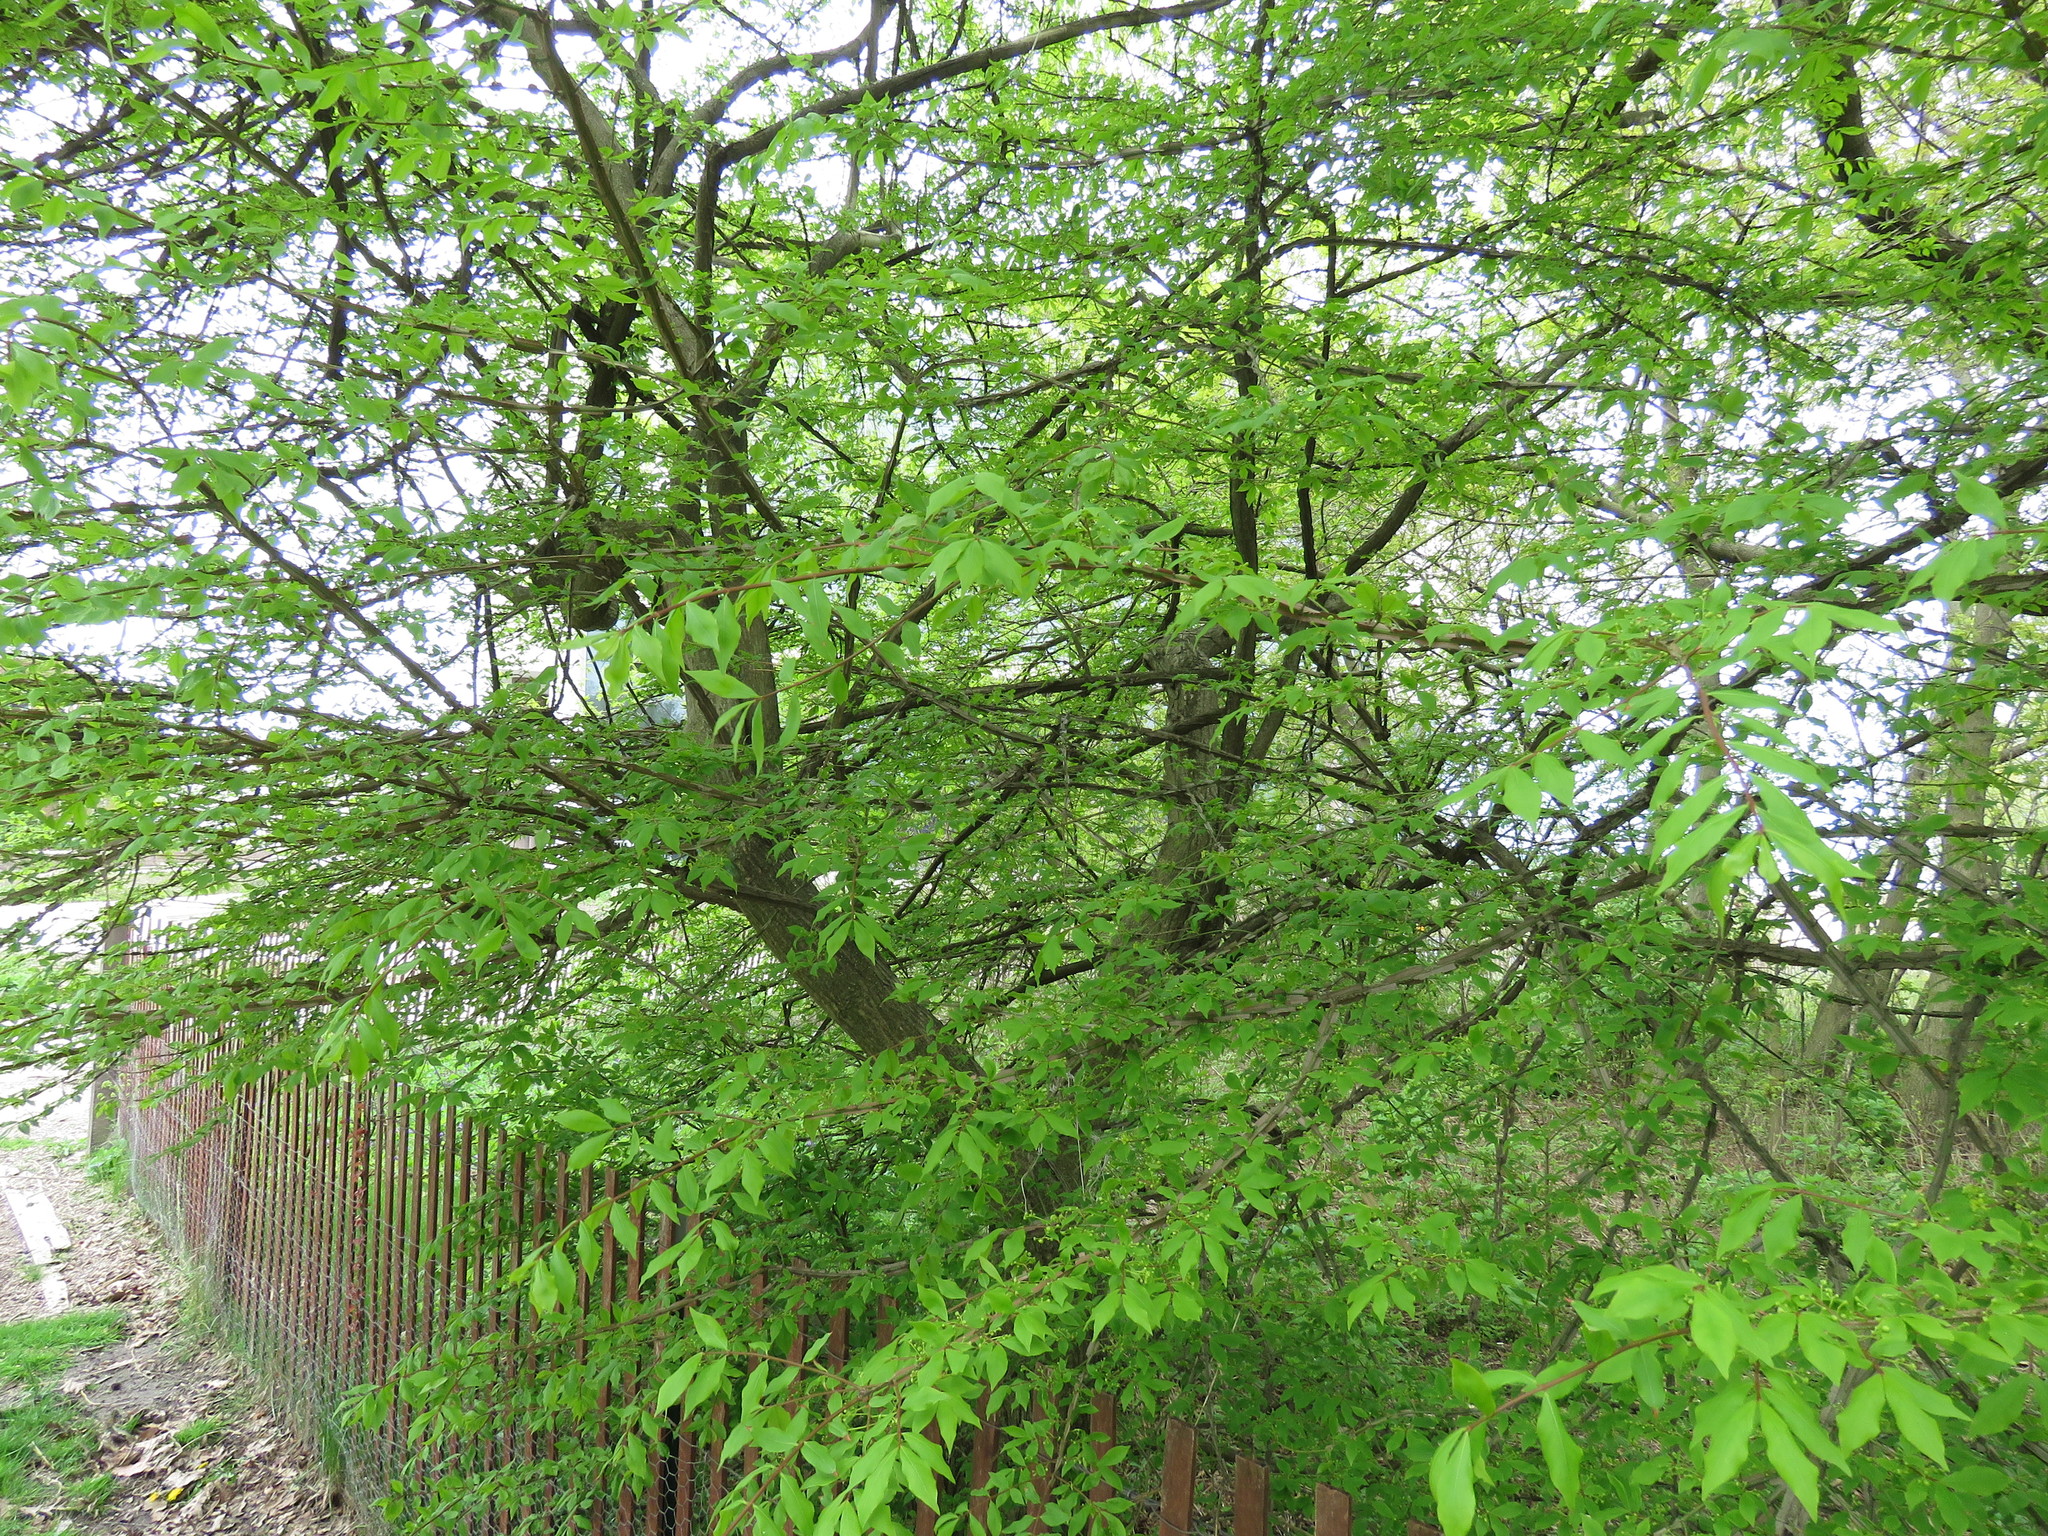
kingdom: Plantae
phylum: Tracheophyta
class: Magnoliopsida
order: Celastrales
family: Celastraceae
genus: Euonymus
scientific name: Euonymus alatus
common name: Winged euonymus
